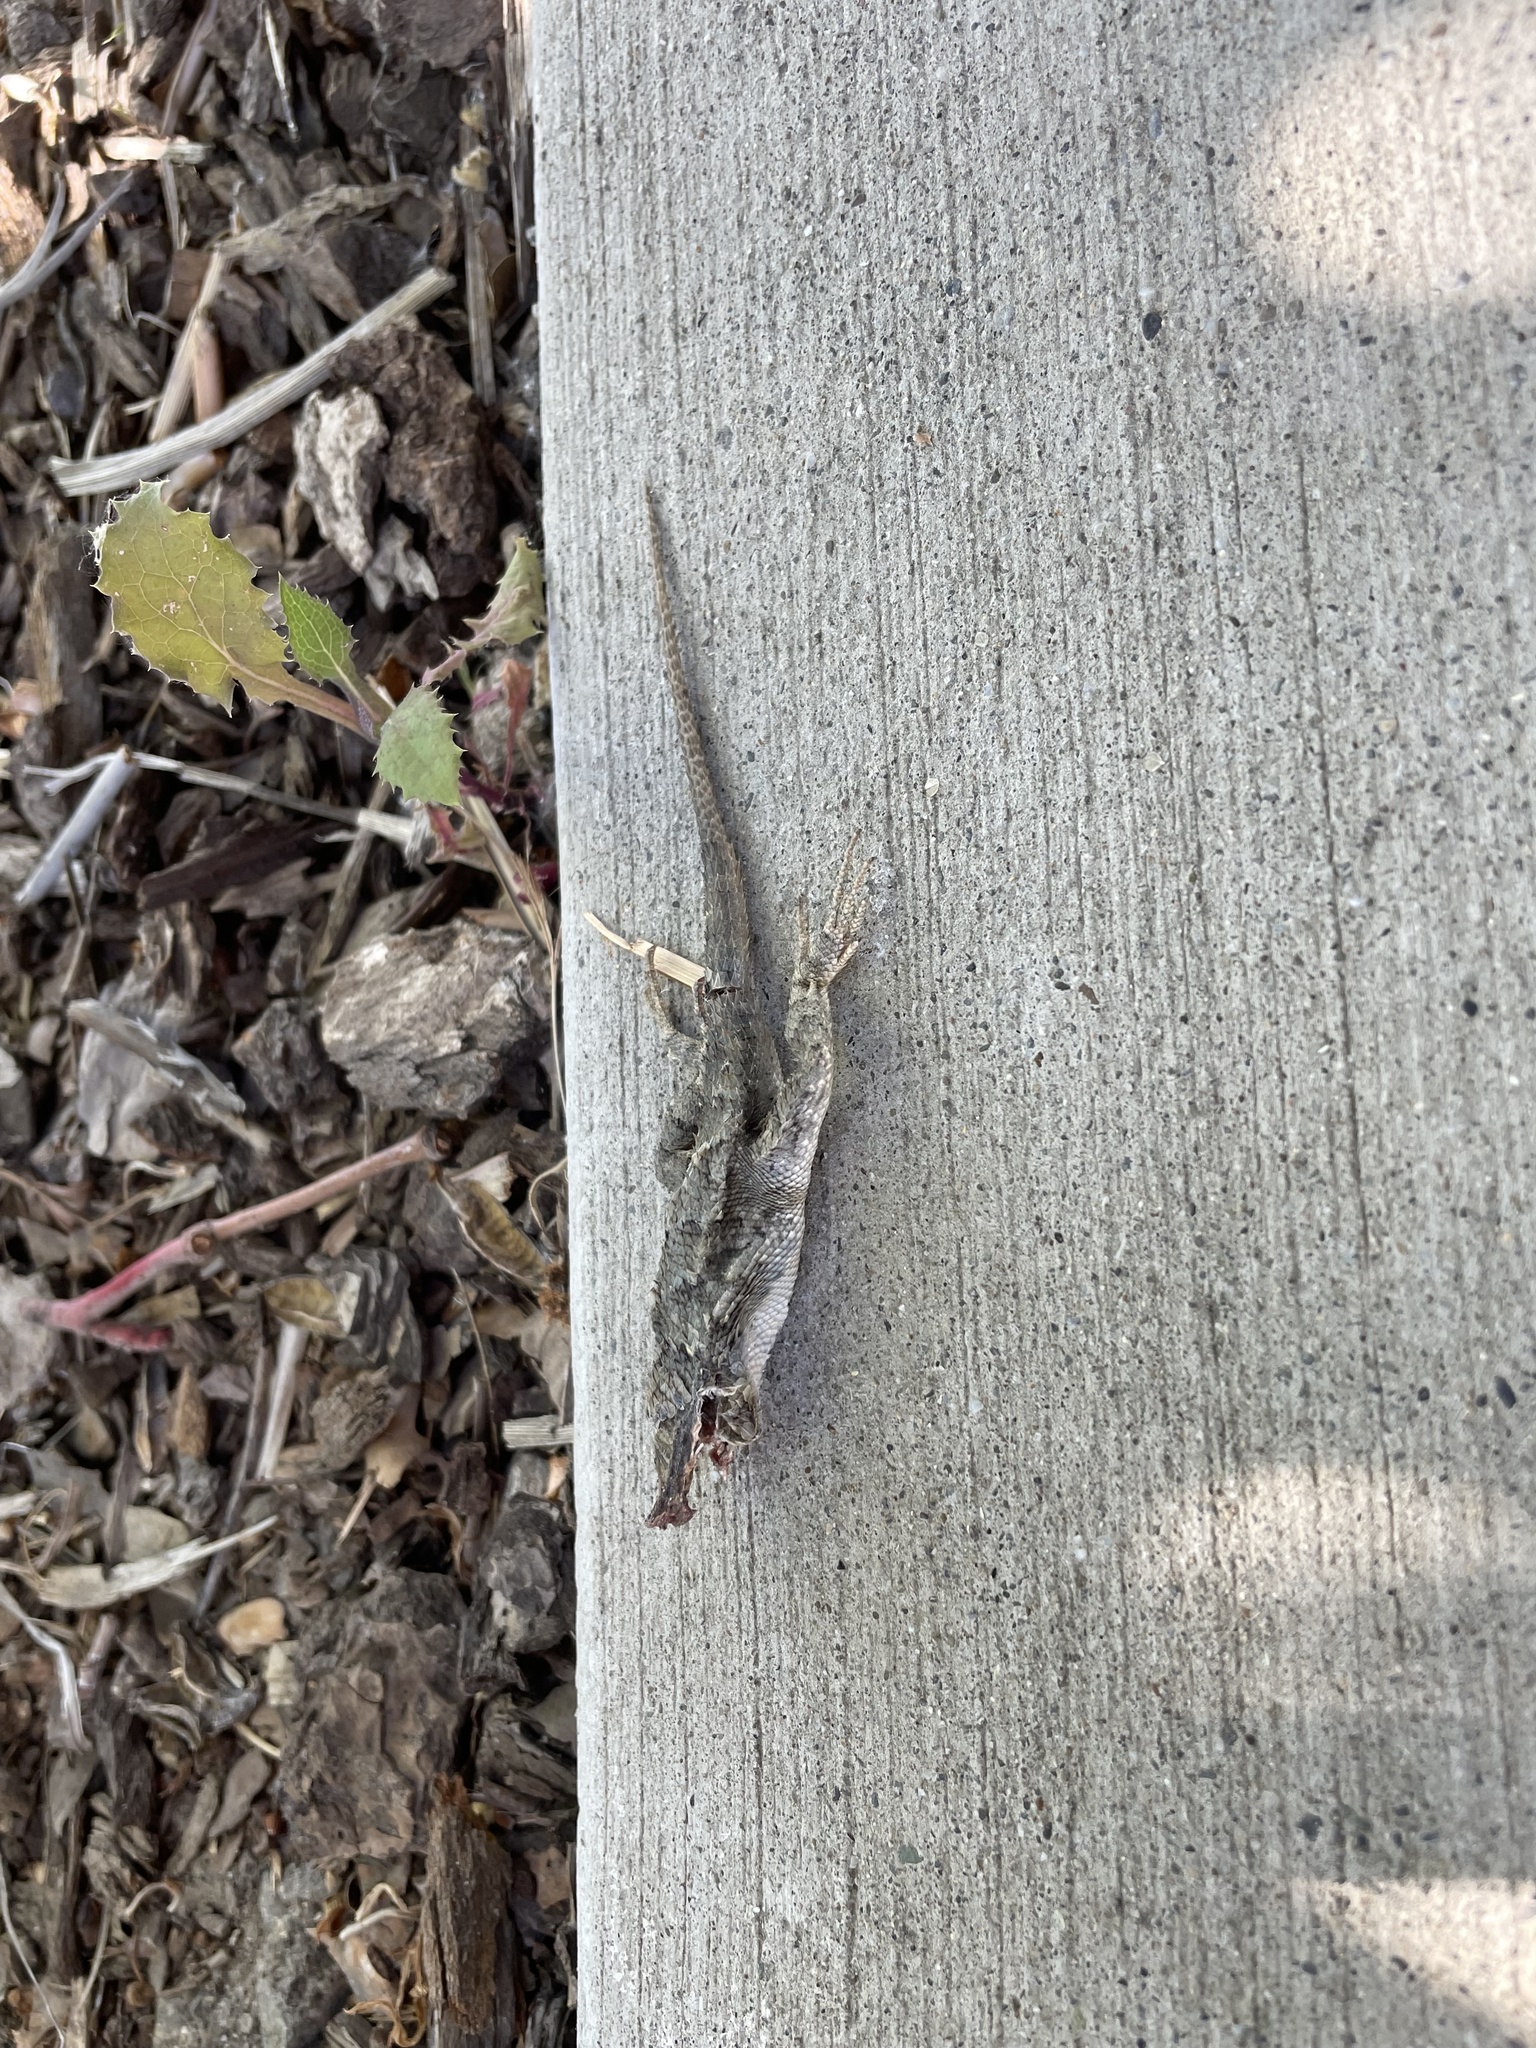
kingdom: Animalia
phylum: Chordata
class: Squamata
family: Phrynosomatidae
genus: Sceloporus
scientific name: Sceloporus occidentalis
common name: Western fence lizard
